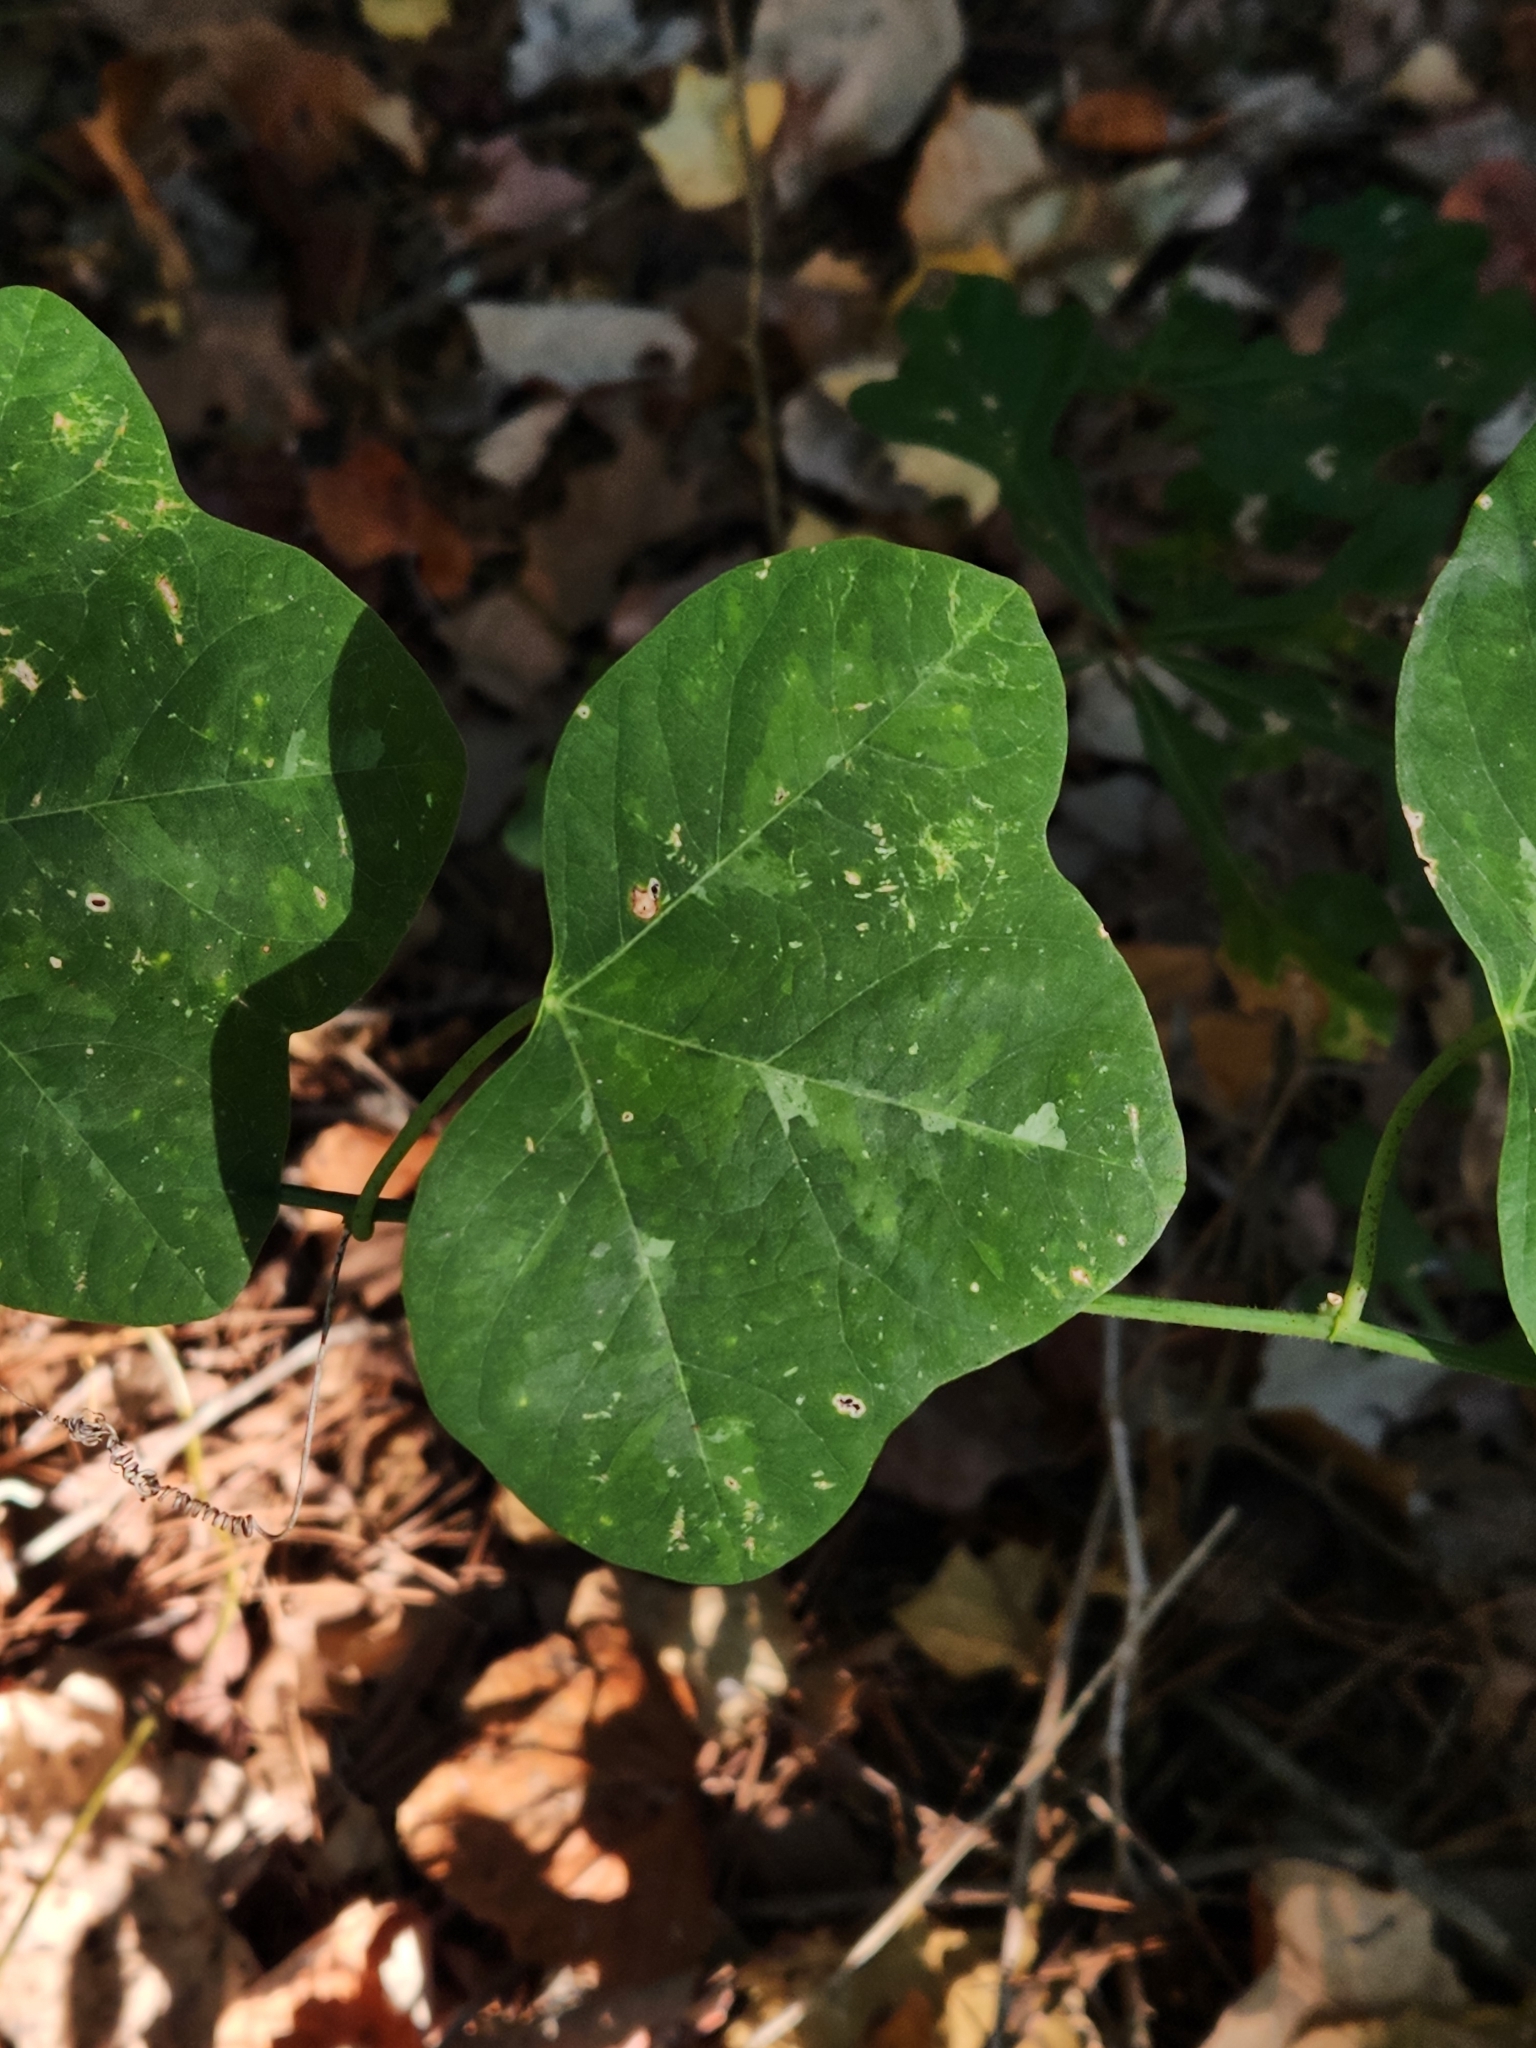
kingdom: Plantae
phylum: Tracheophyta
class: Magnoliopsida
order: Malpighiales
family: Passifloraceae
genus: Passiflora
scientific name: Passiflora lutea
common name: Yellow passionflower
